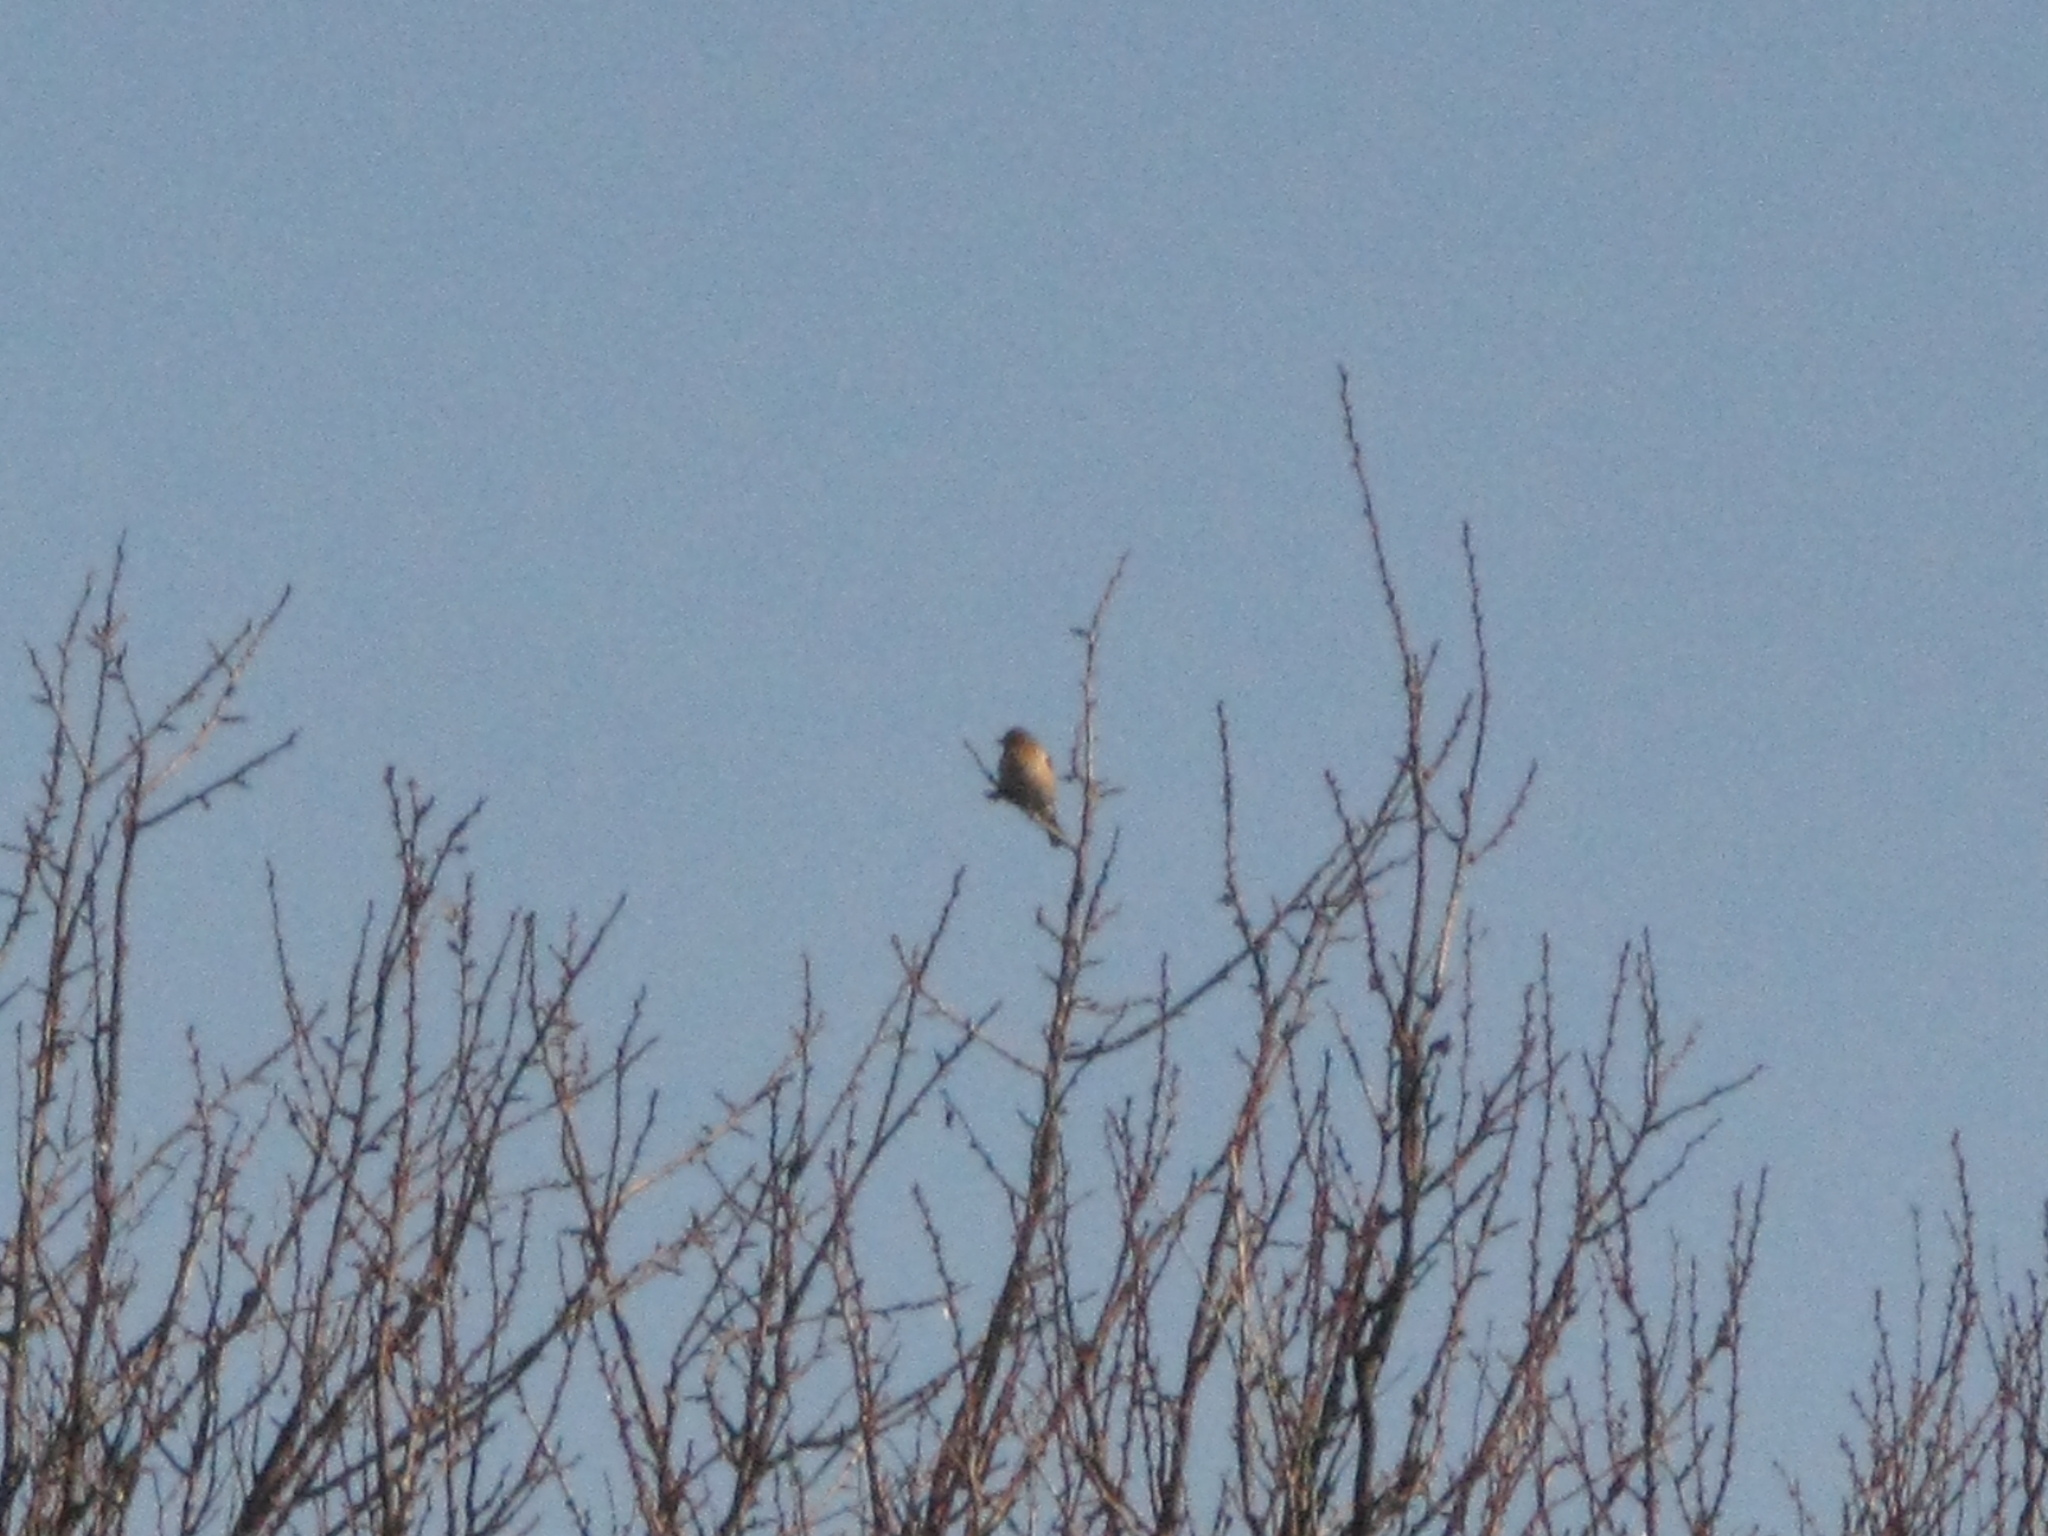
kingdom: Animalia
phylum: Chordata
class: Aves
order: Passeriformes
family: Fringillidae
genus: Fringilla
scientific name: Fringilla coelebs
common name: Common chaffinch
